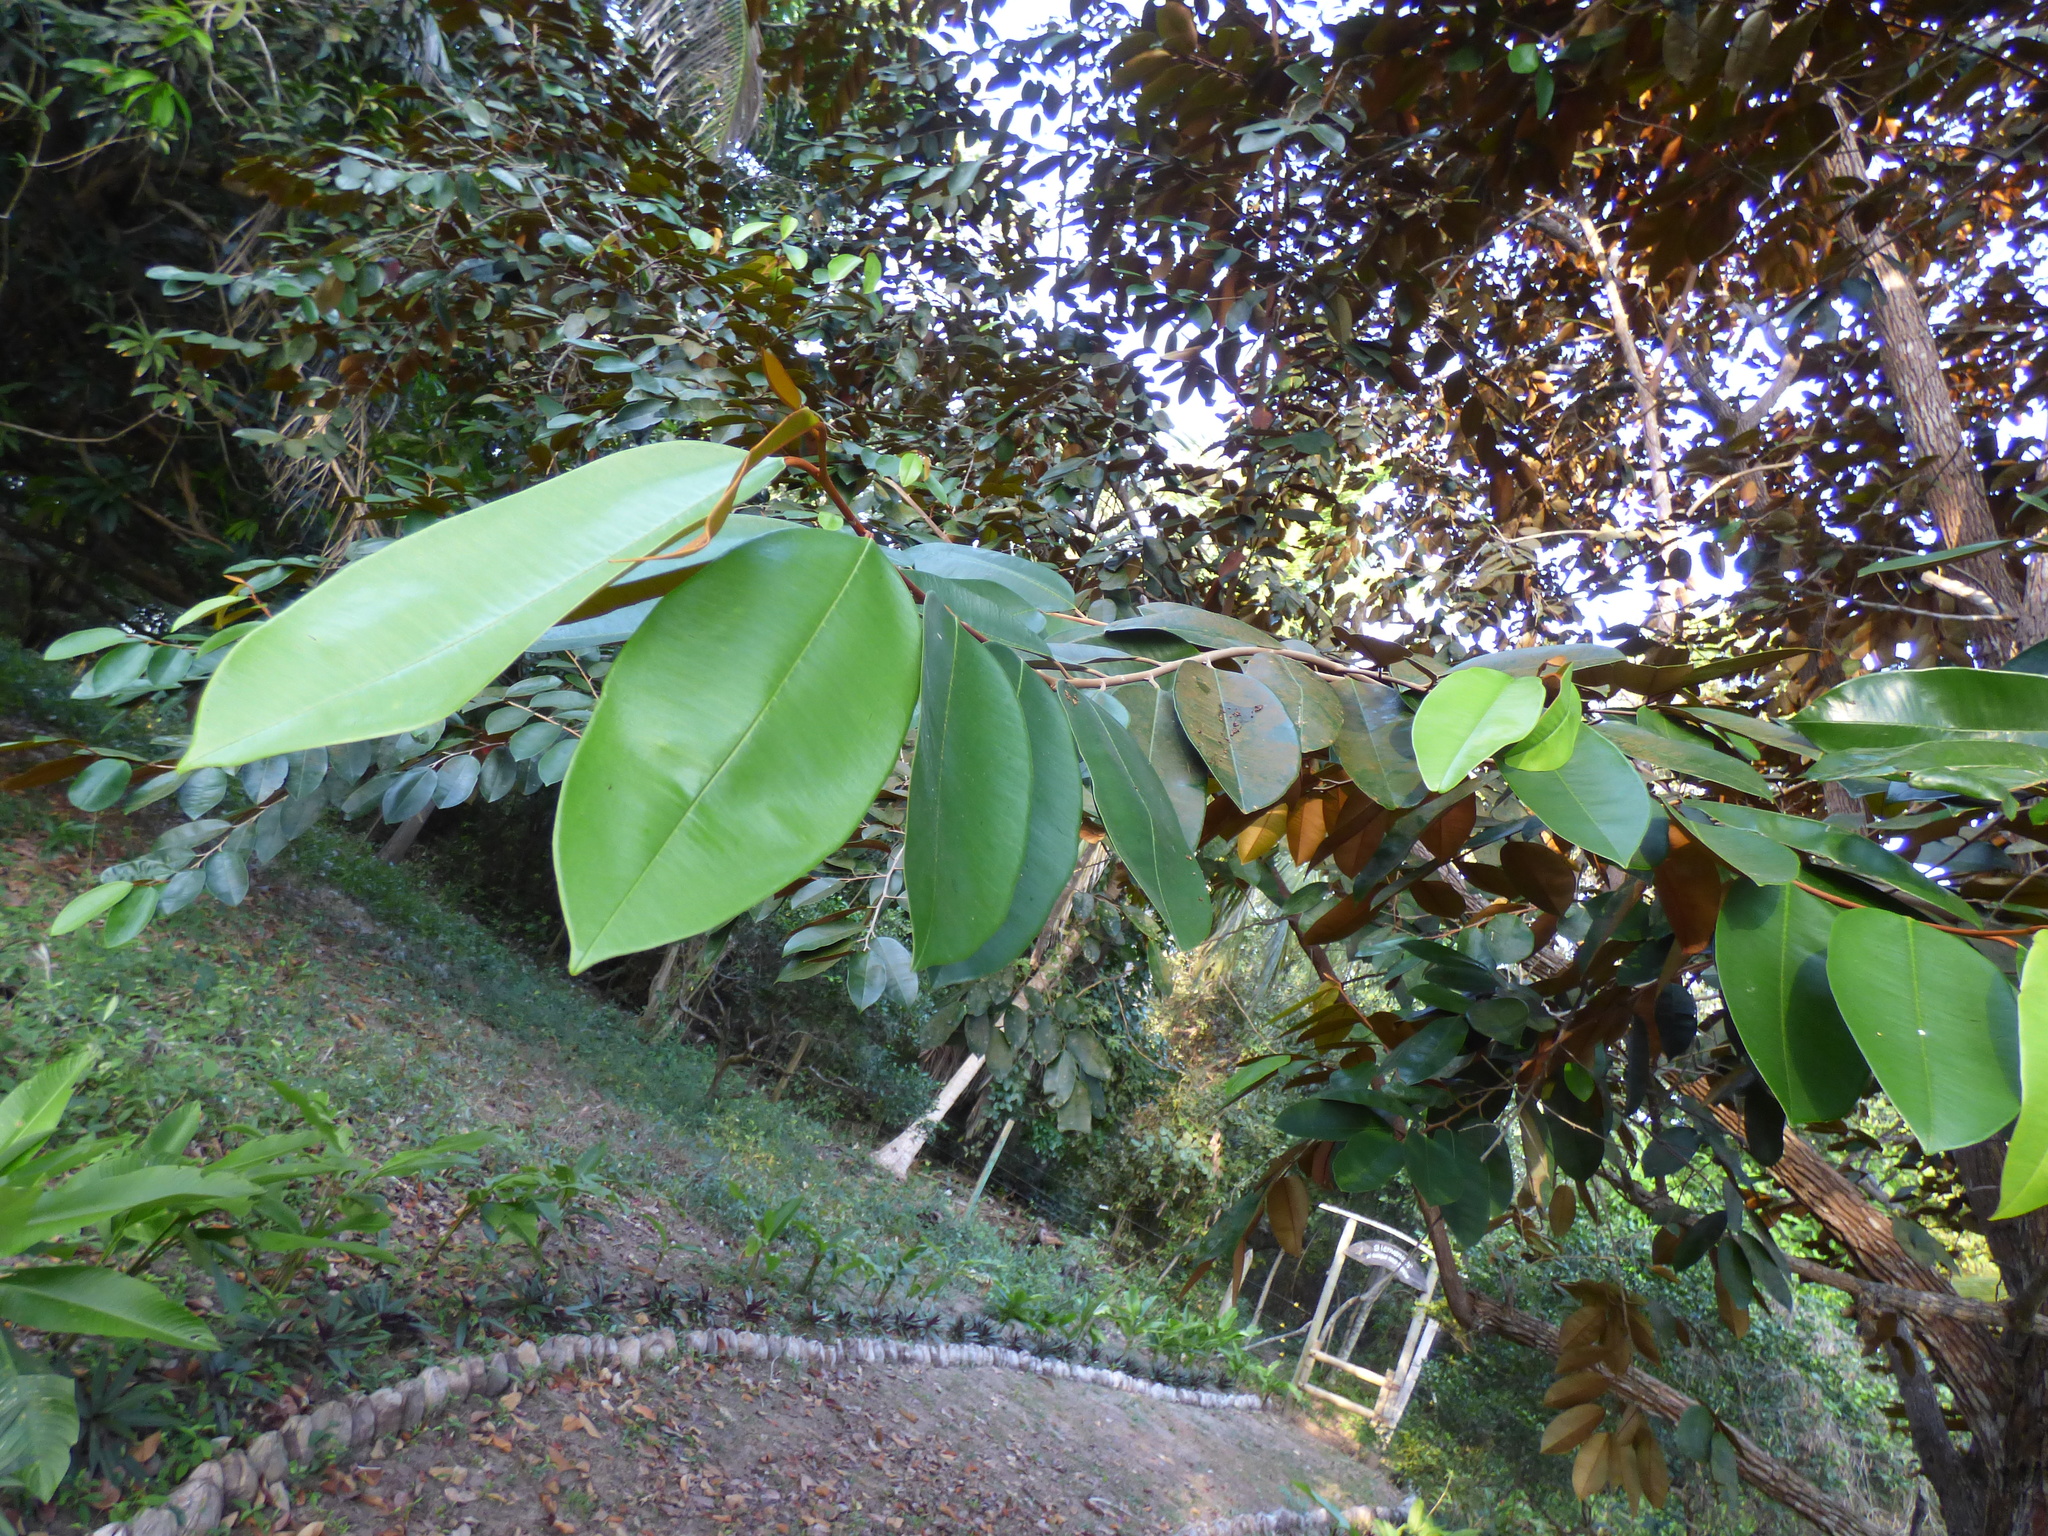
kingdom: Plantae
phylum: Tracheophyta
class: Magnoliopsida
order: Ericales
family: Sapotaceae
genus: Chrysophyllum
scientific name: Chrysophyllum cainito
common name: Star-apple
